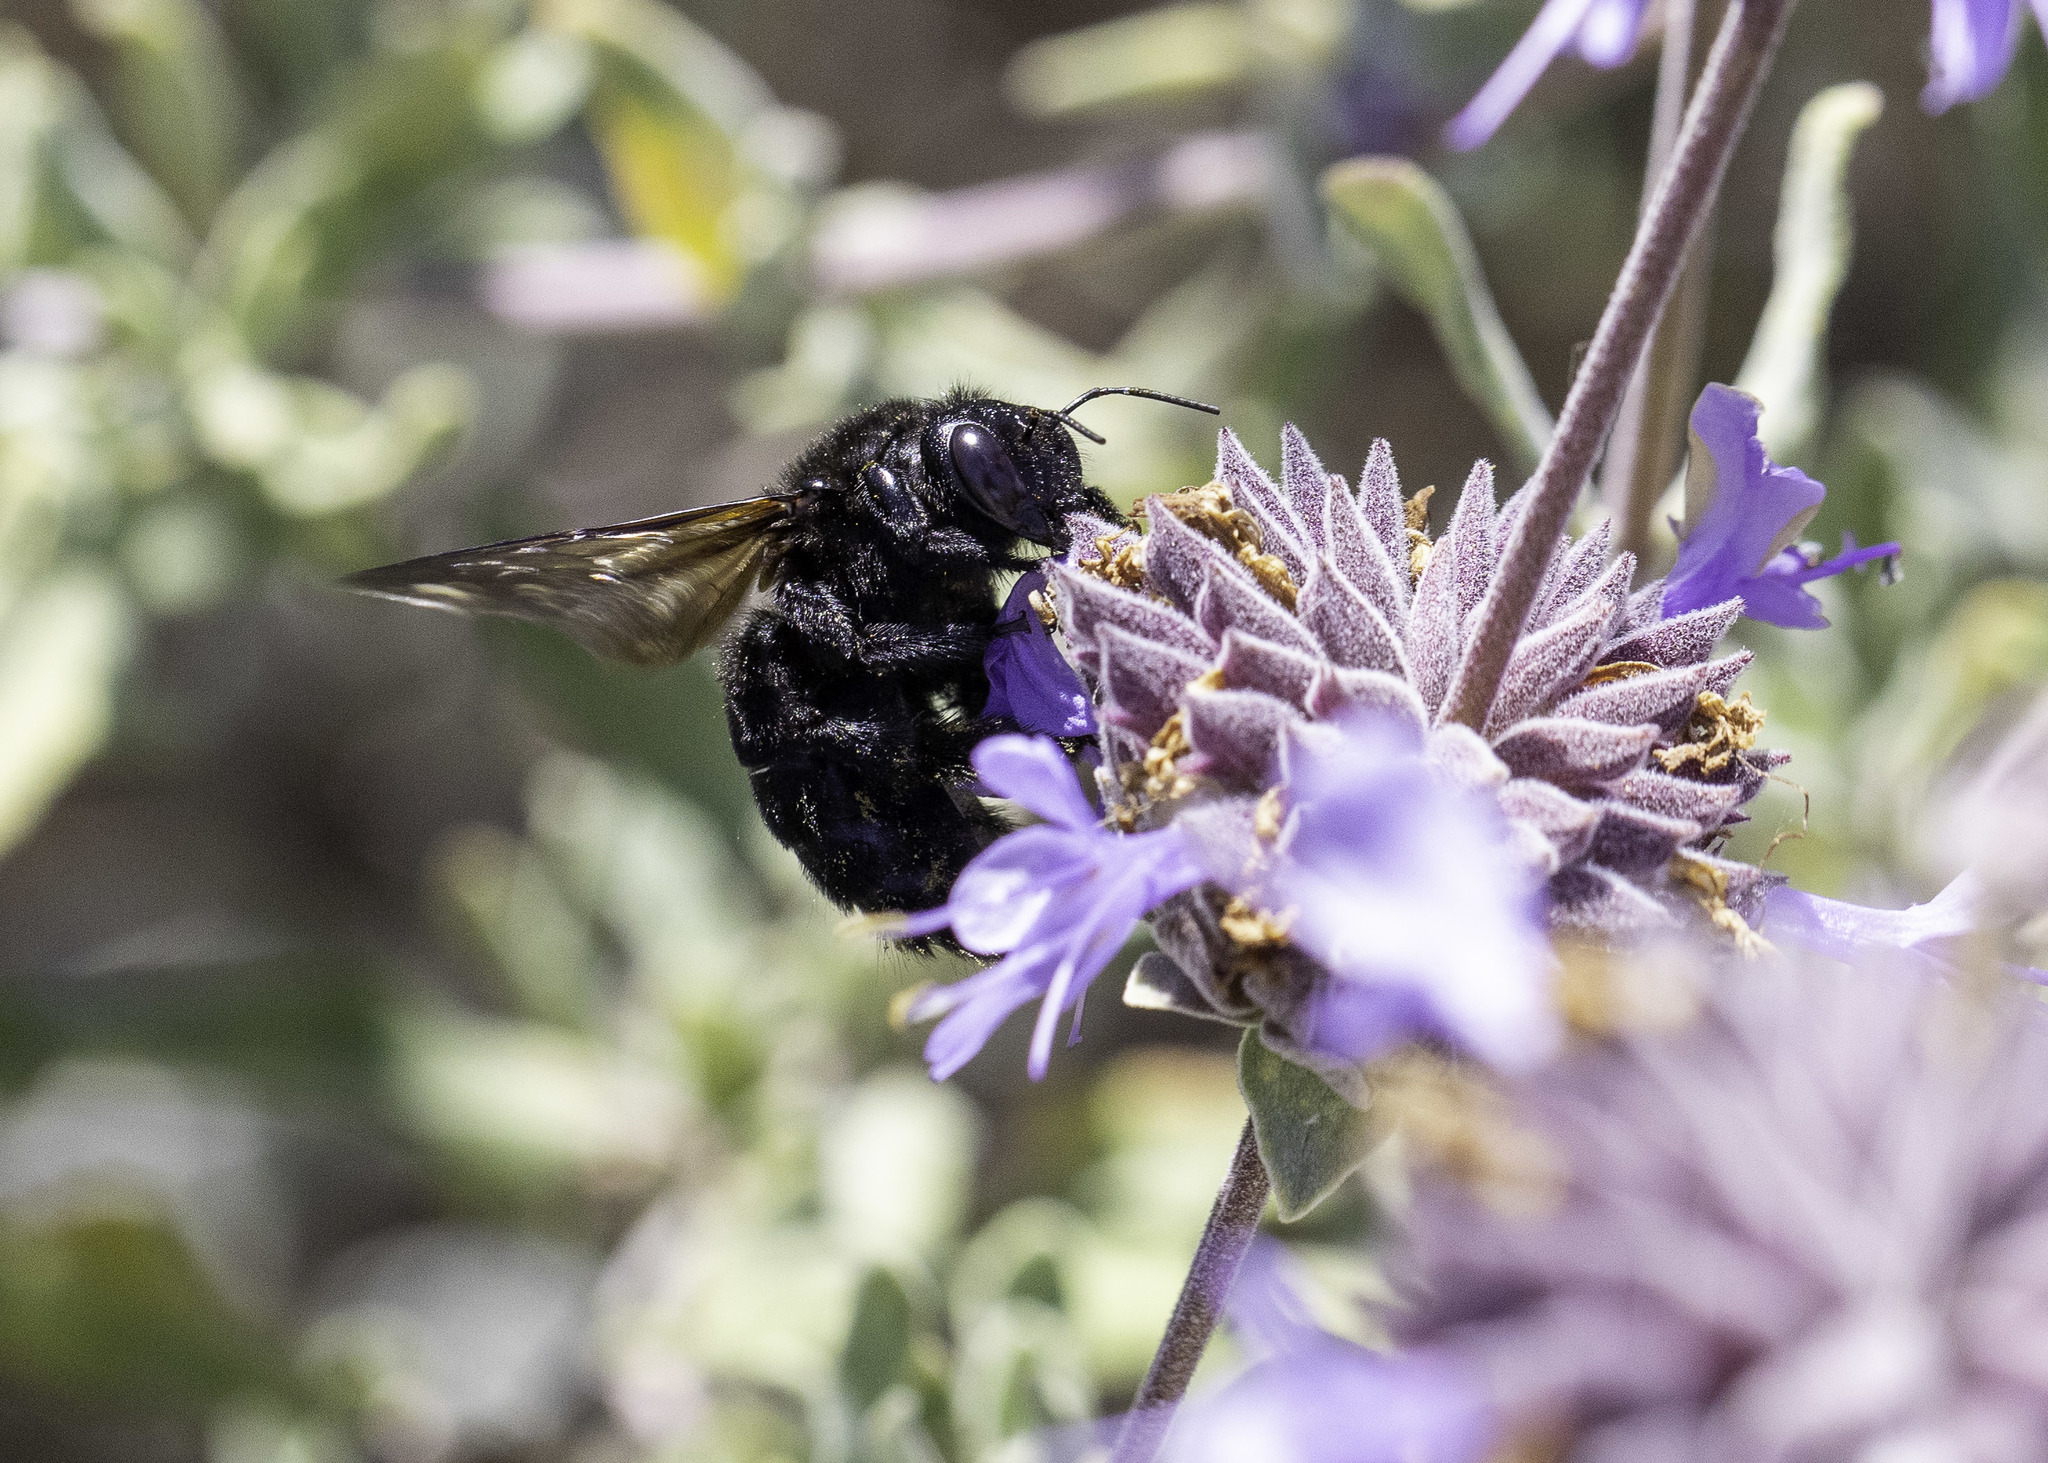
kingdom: Animalia
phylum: Arthropoda
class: Insecta
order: Hymenoptera
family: Apidae
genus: Xylocopa
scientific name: Xylocopa sonorina
